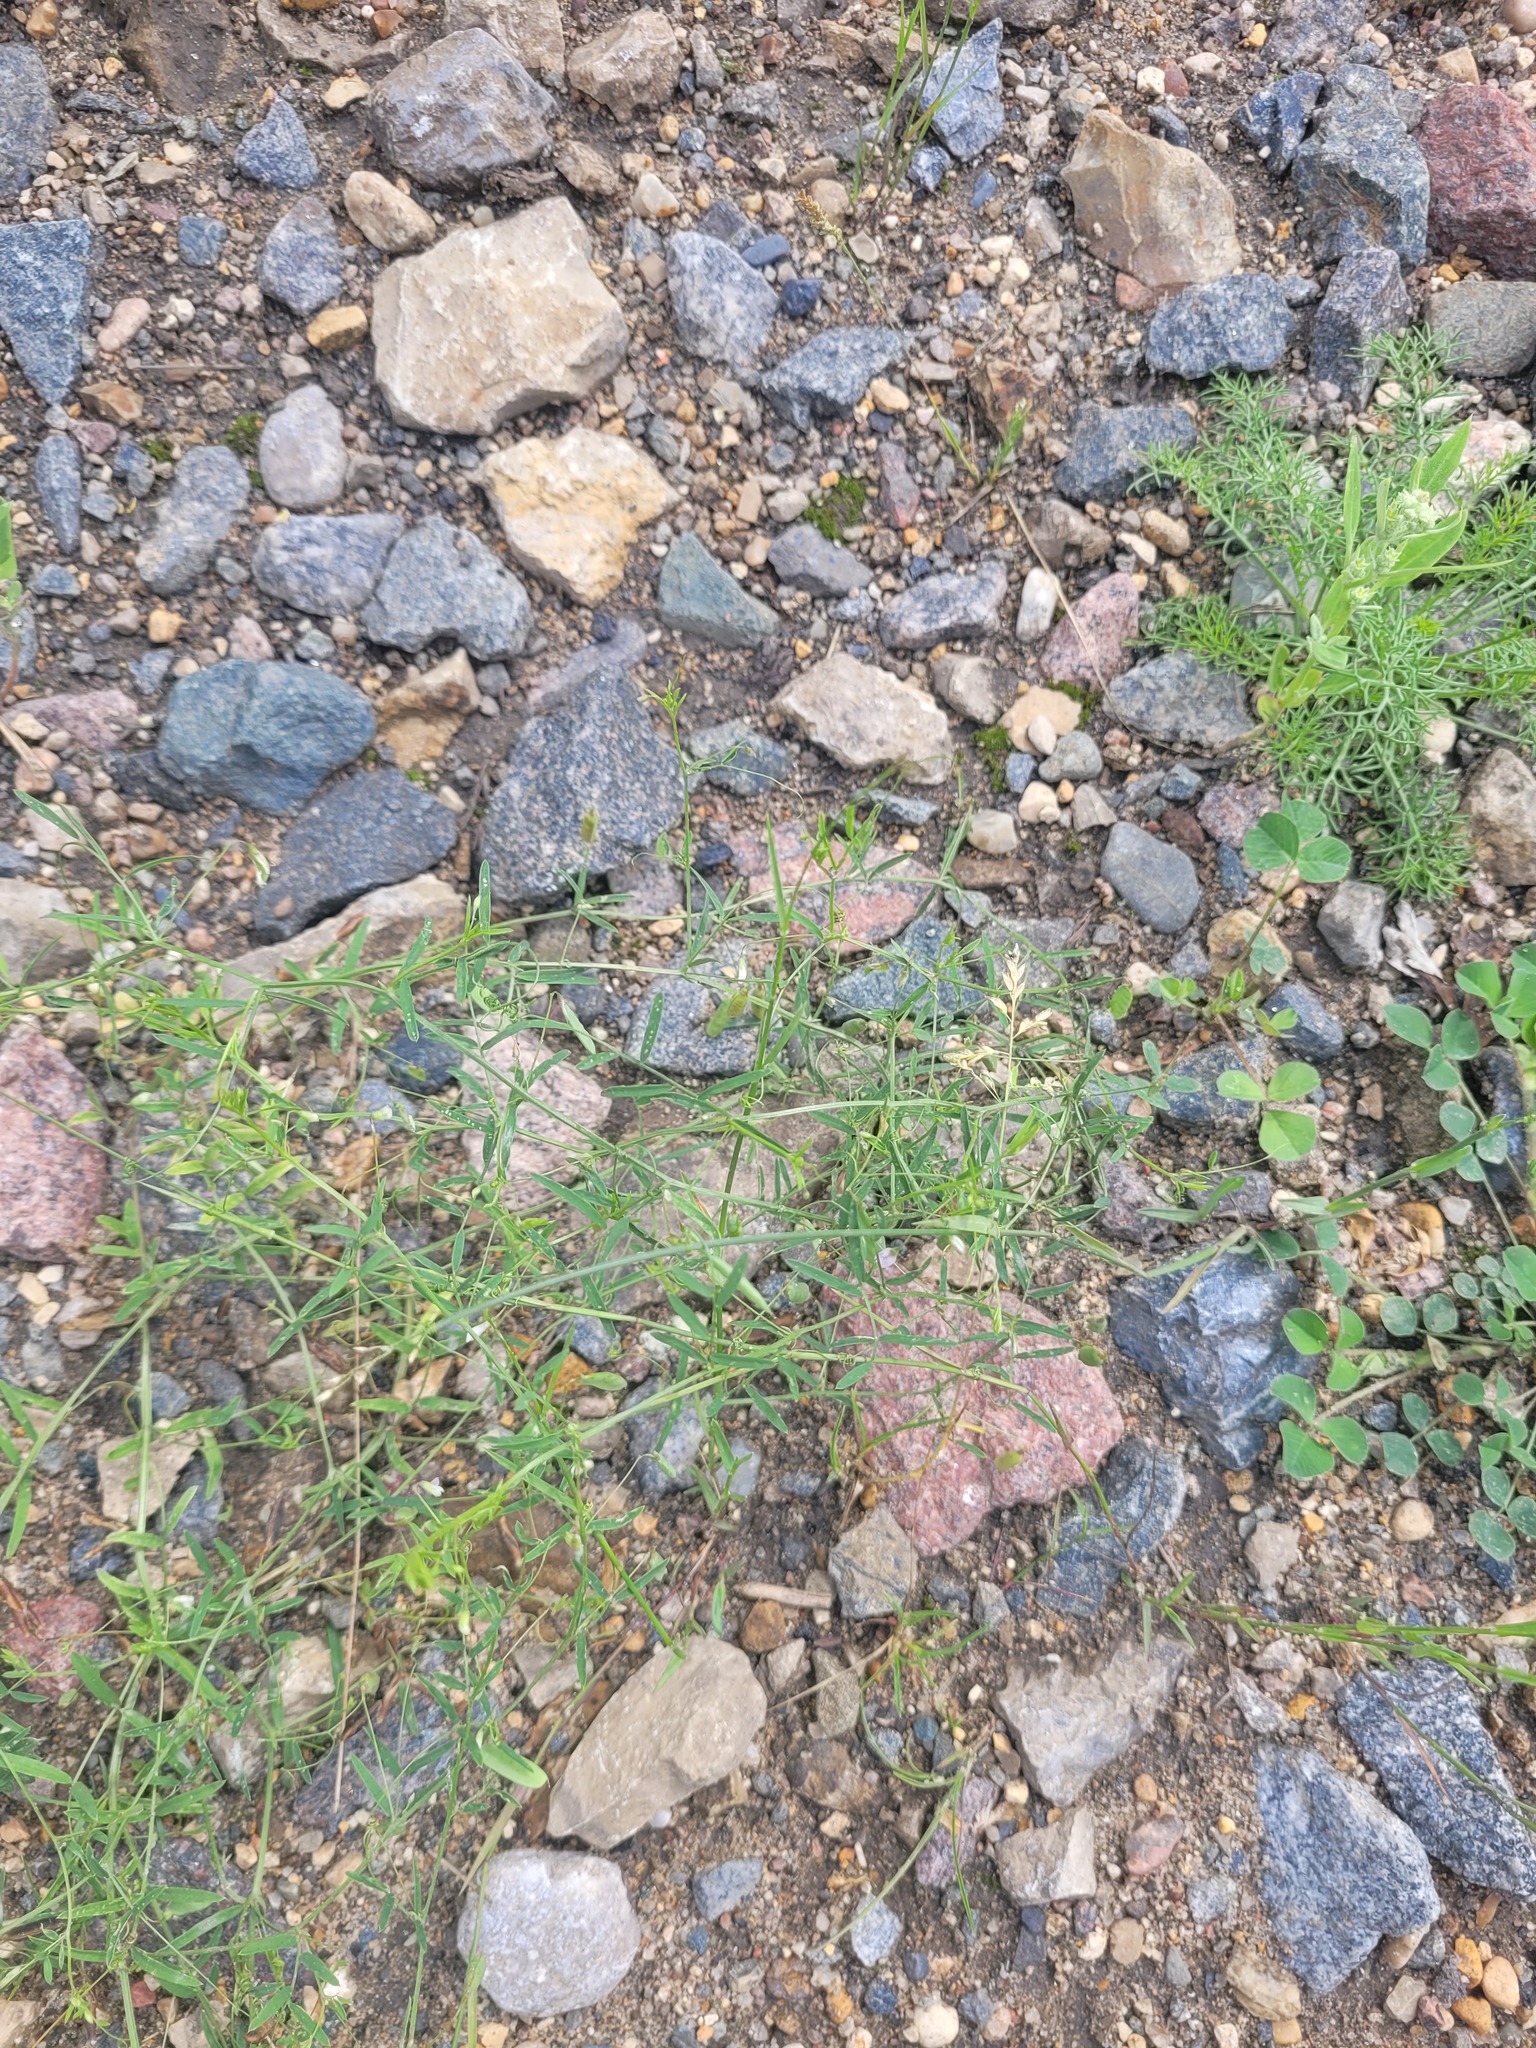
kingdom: Plantae
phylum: Tracheophyta
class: Magnoliopsida
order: Fabales
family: Fabaceae
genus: Vicia
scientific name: Vicia tetrasperma
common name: Smooth tare
